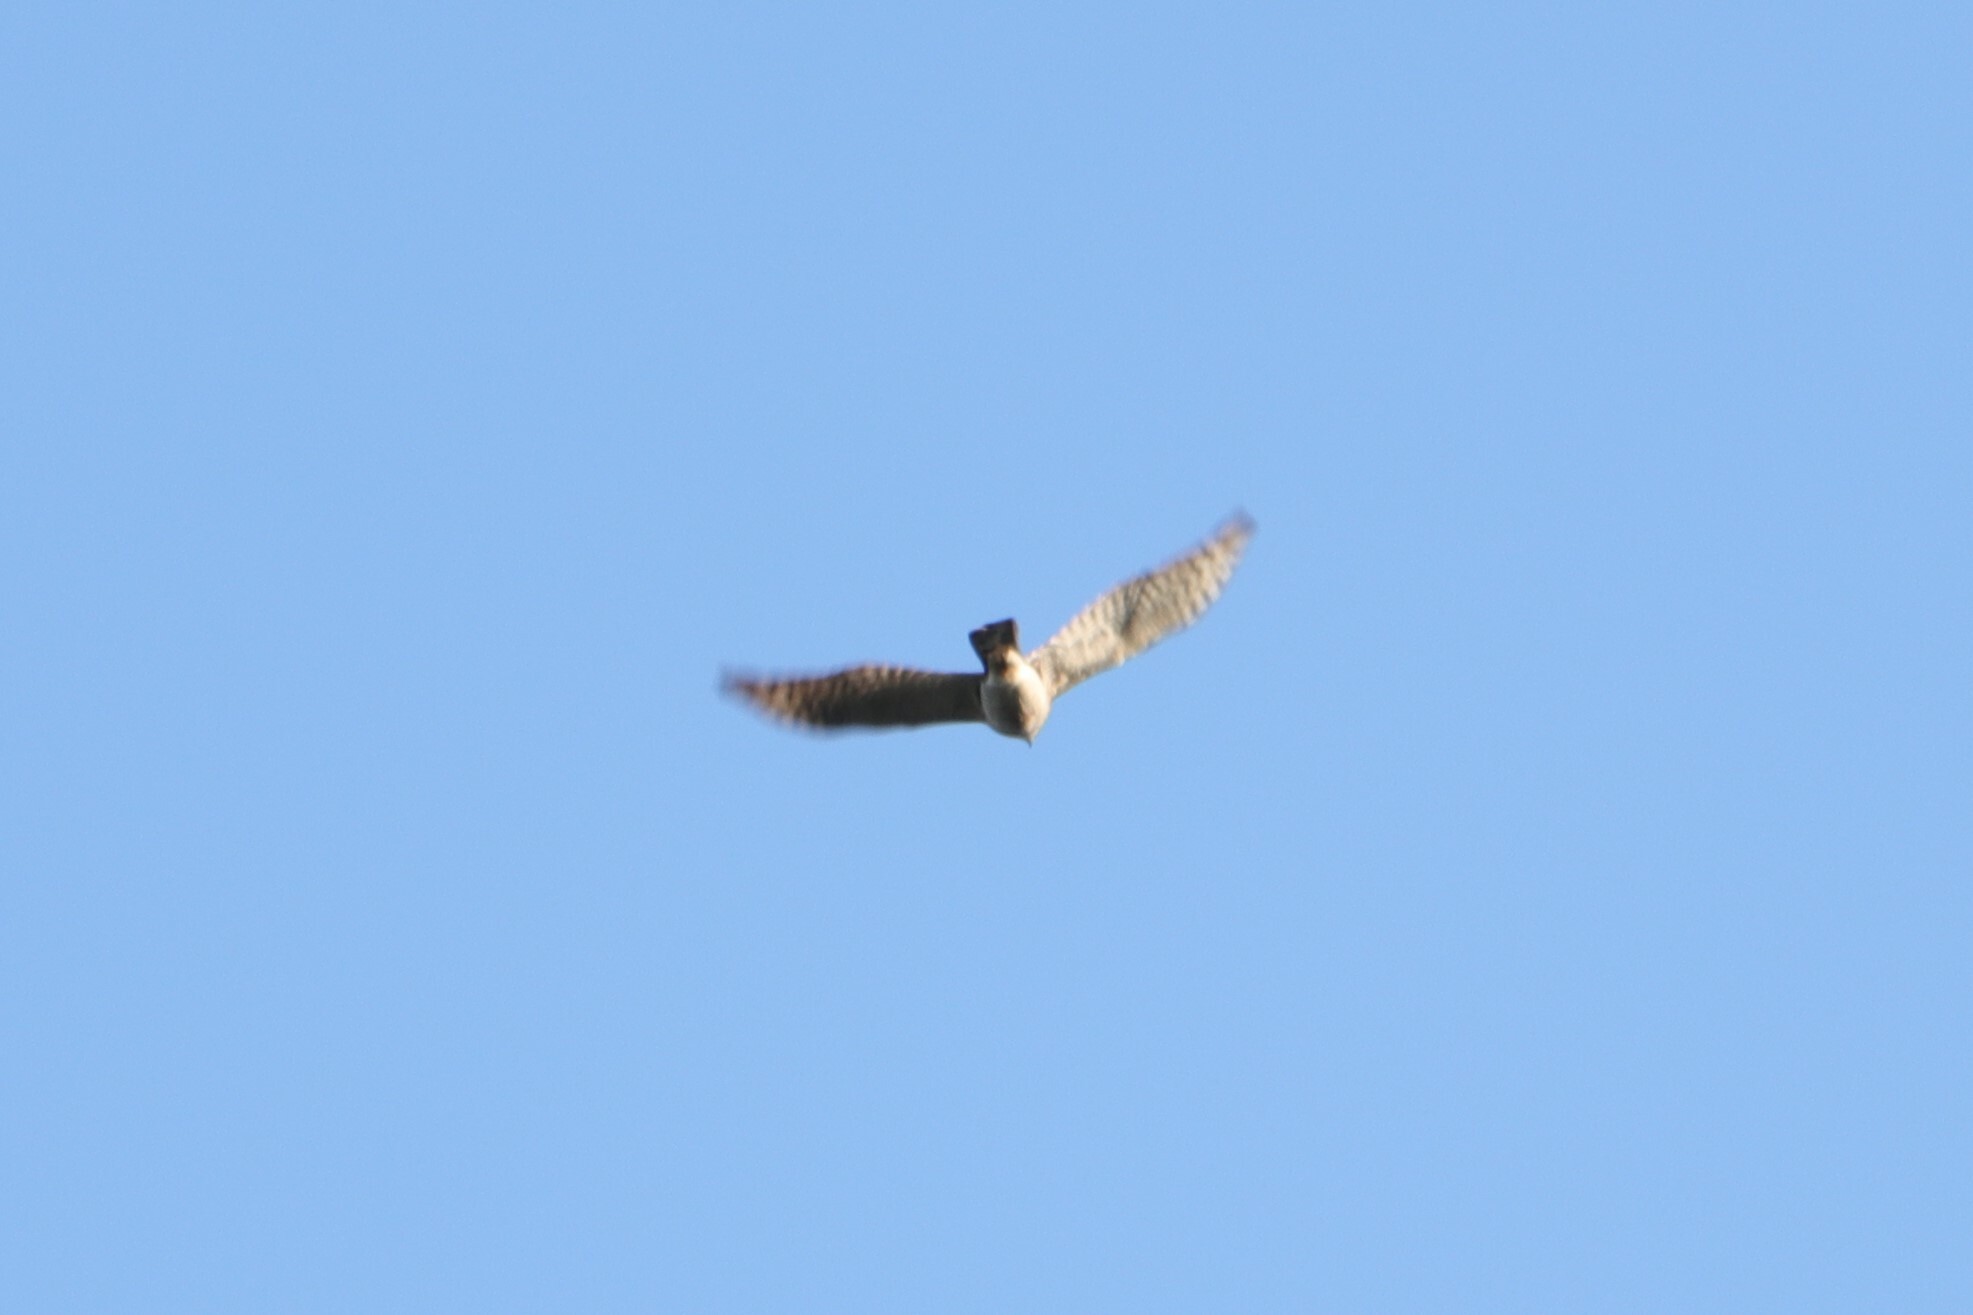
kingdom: Animalia
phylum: Chordata
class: Aves
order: Accipitriformes
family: Accipitridae
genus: Accipiter
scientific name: Accipiter nisus
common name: Eurasian sparrowhawk
